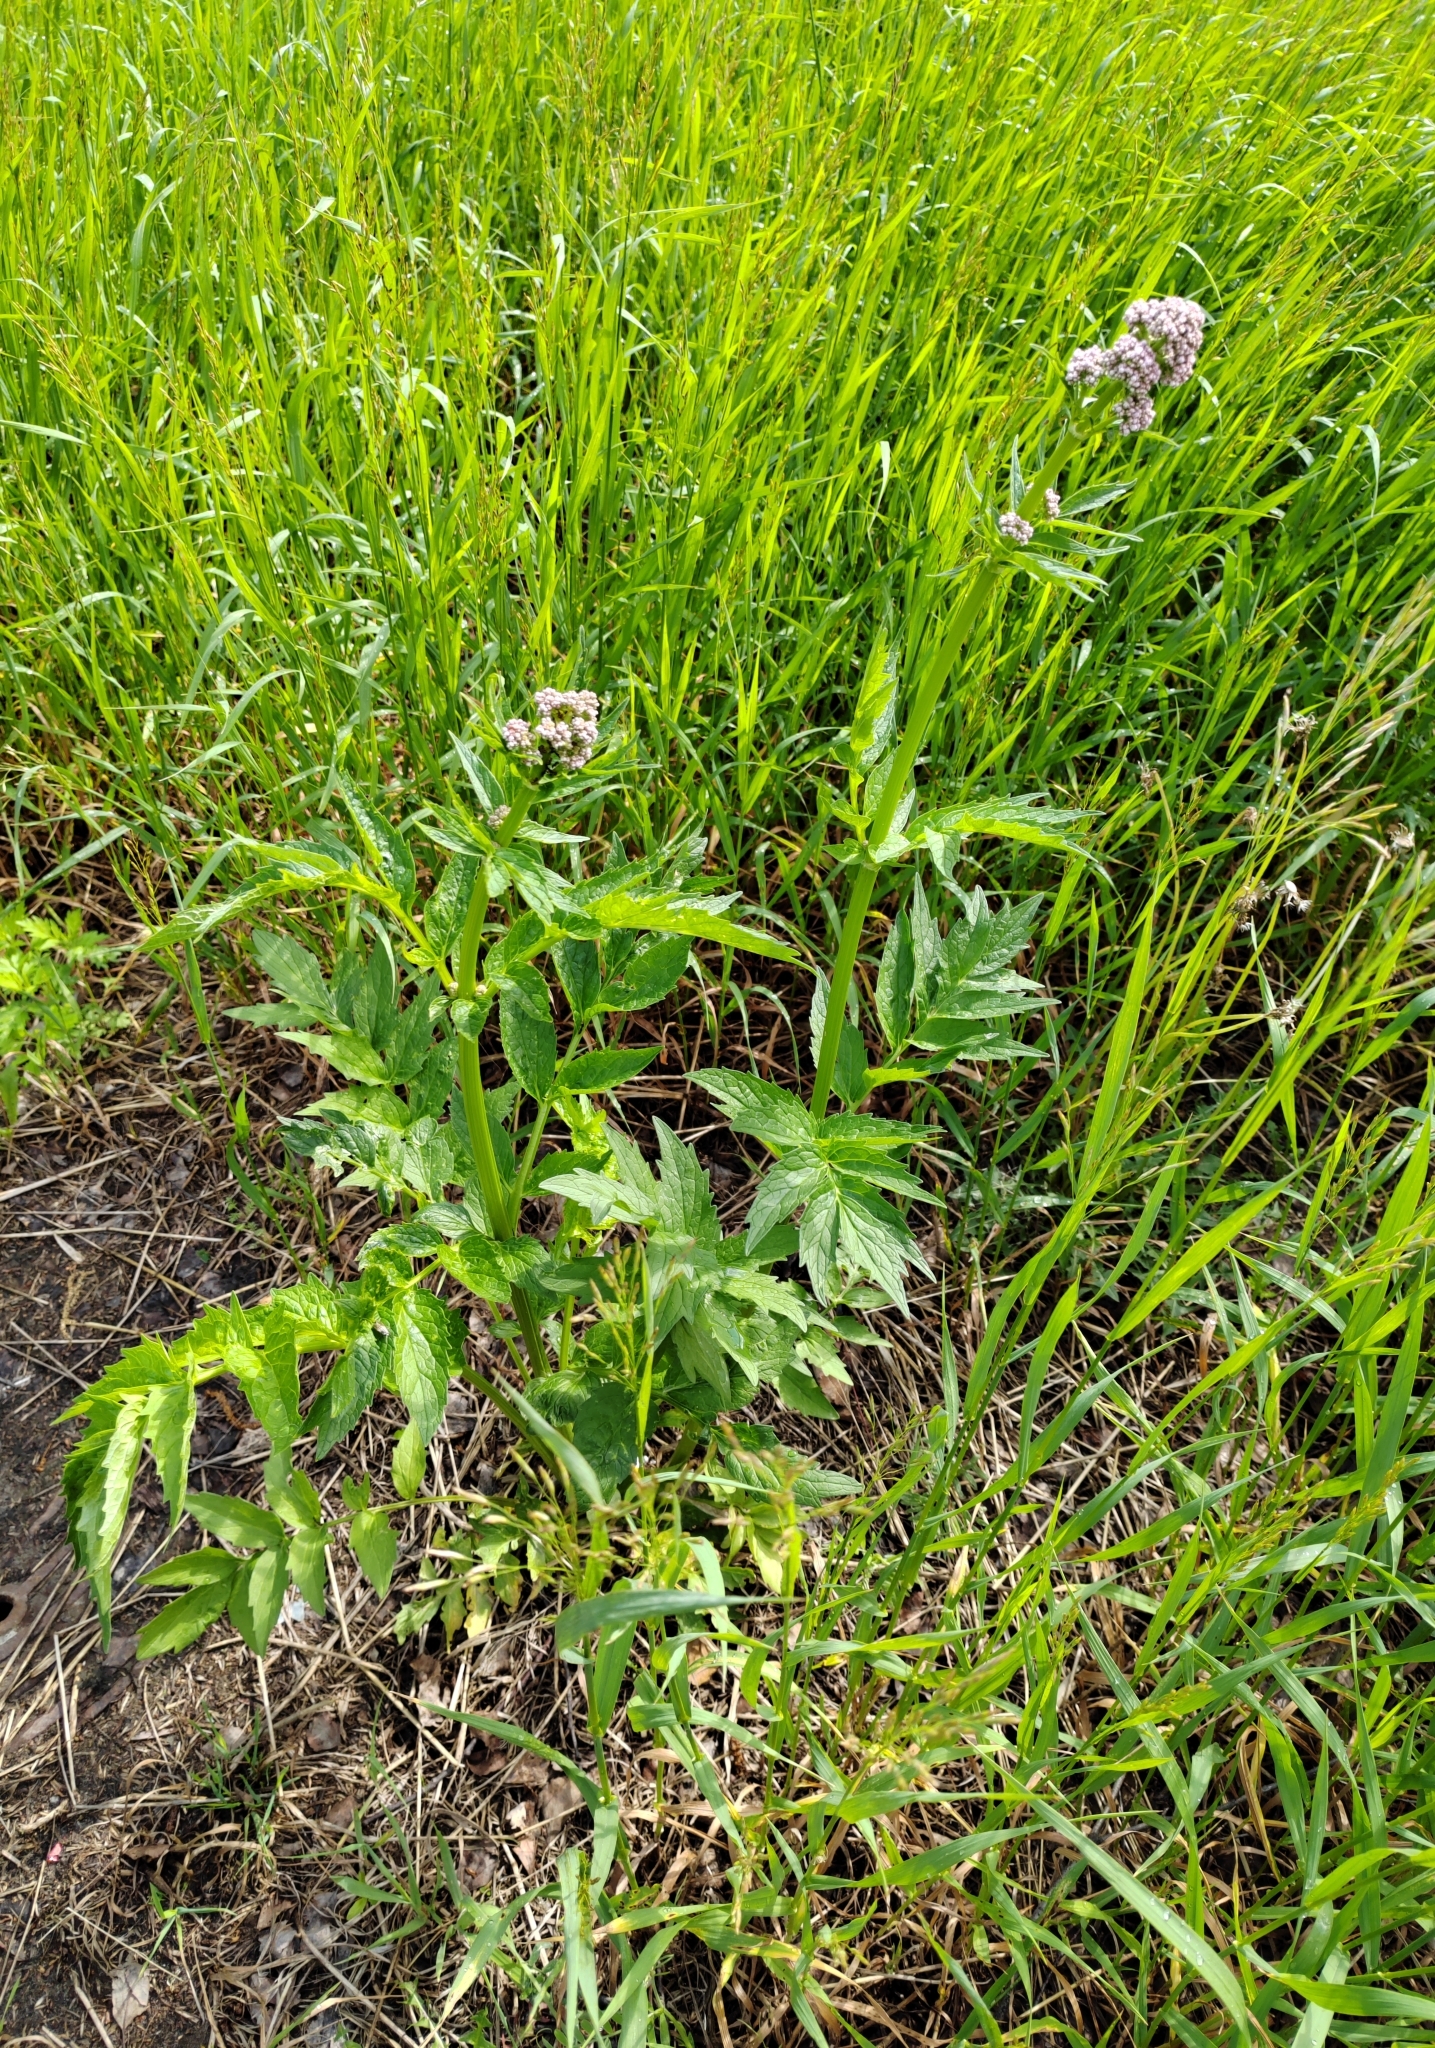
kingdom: Plantae
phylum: Tracheophyta
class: Magnoliopsida
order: Dipsacales
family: Caprifoliaceae
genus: Valeriana
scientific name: Valeriana wolgensis
